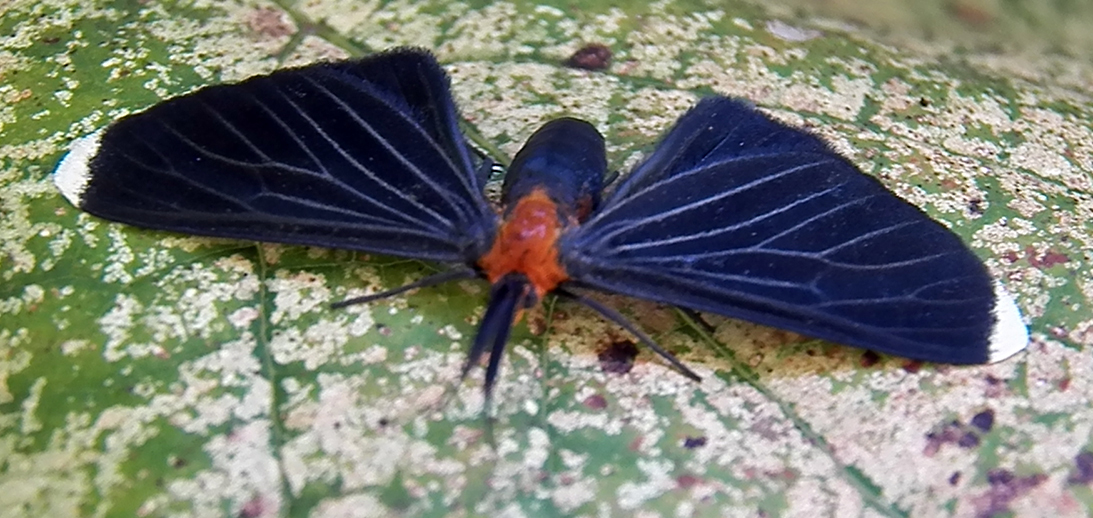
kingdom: Animalia
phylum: Arthropoda
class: Insecta
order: Lepidoptera
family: Geometridae
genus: Melanchroia
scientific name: Melanchroia chephise
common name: White-tipped black
